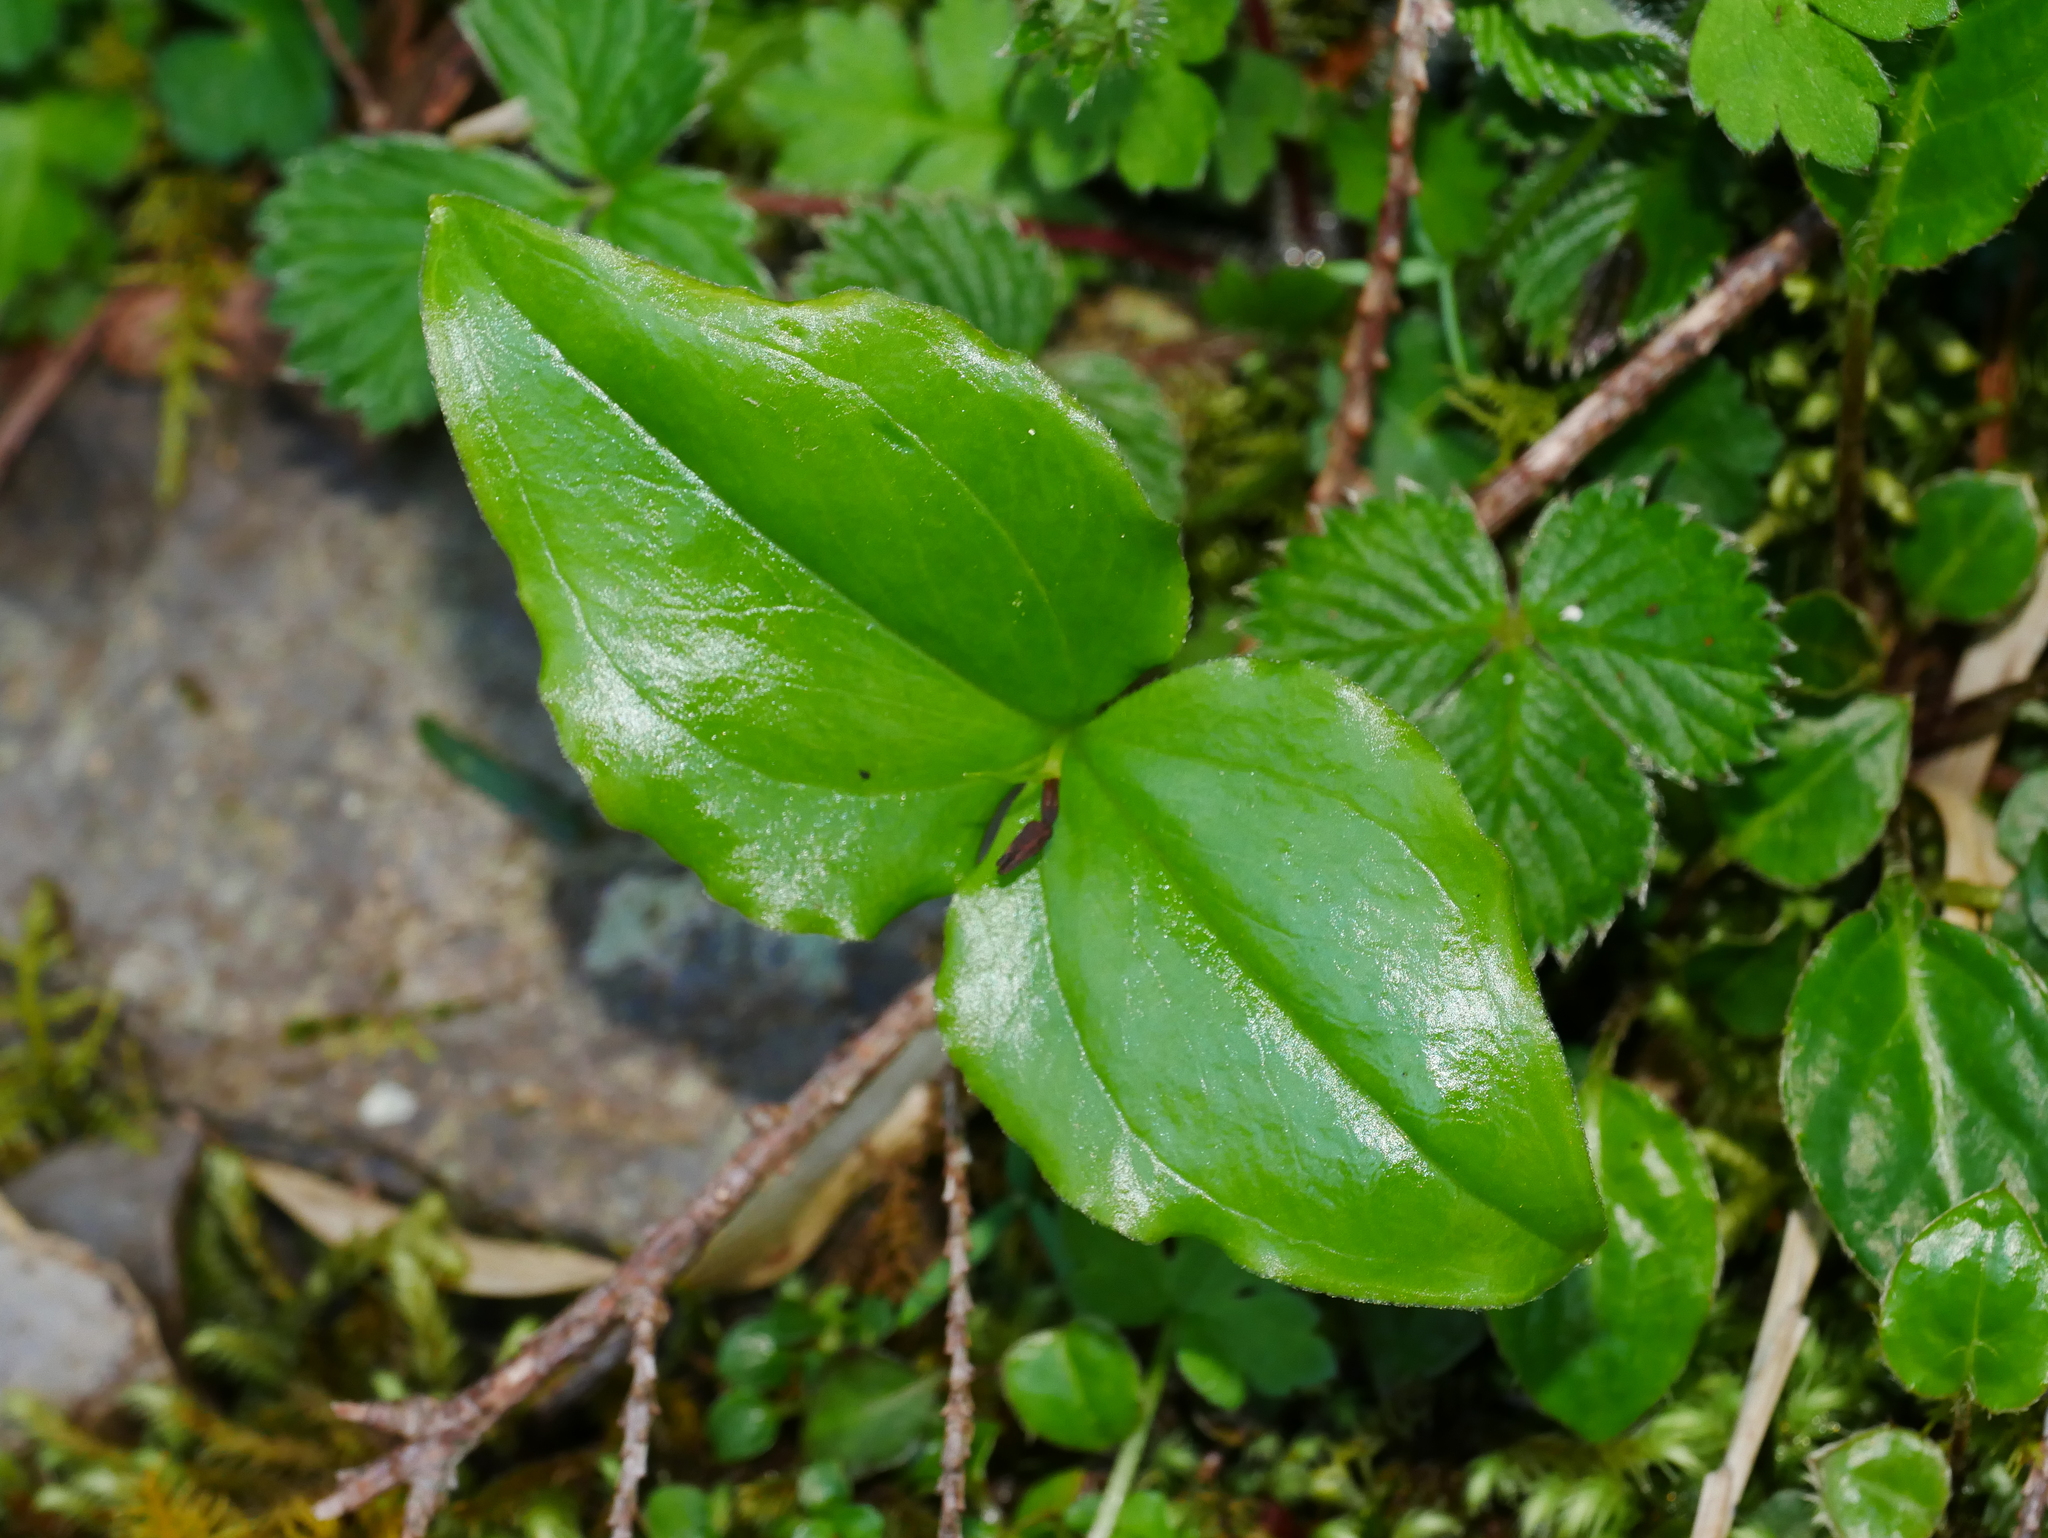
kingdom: Plantae
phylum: Tracheophyta
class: Liliopsida
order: Asparagales
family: Orchidaceae
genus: Cypripedium
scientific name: Cypripedium debile
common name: Frail cypripedium
